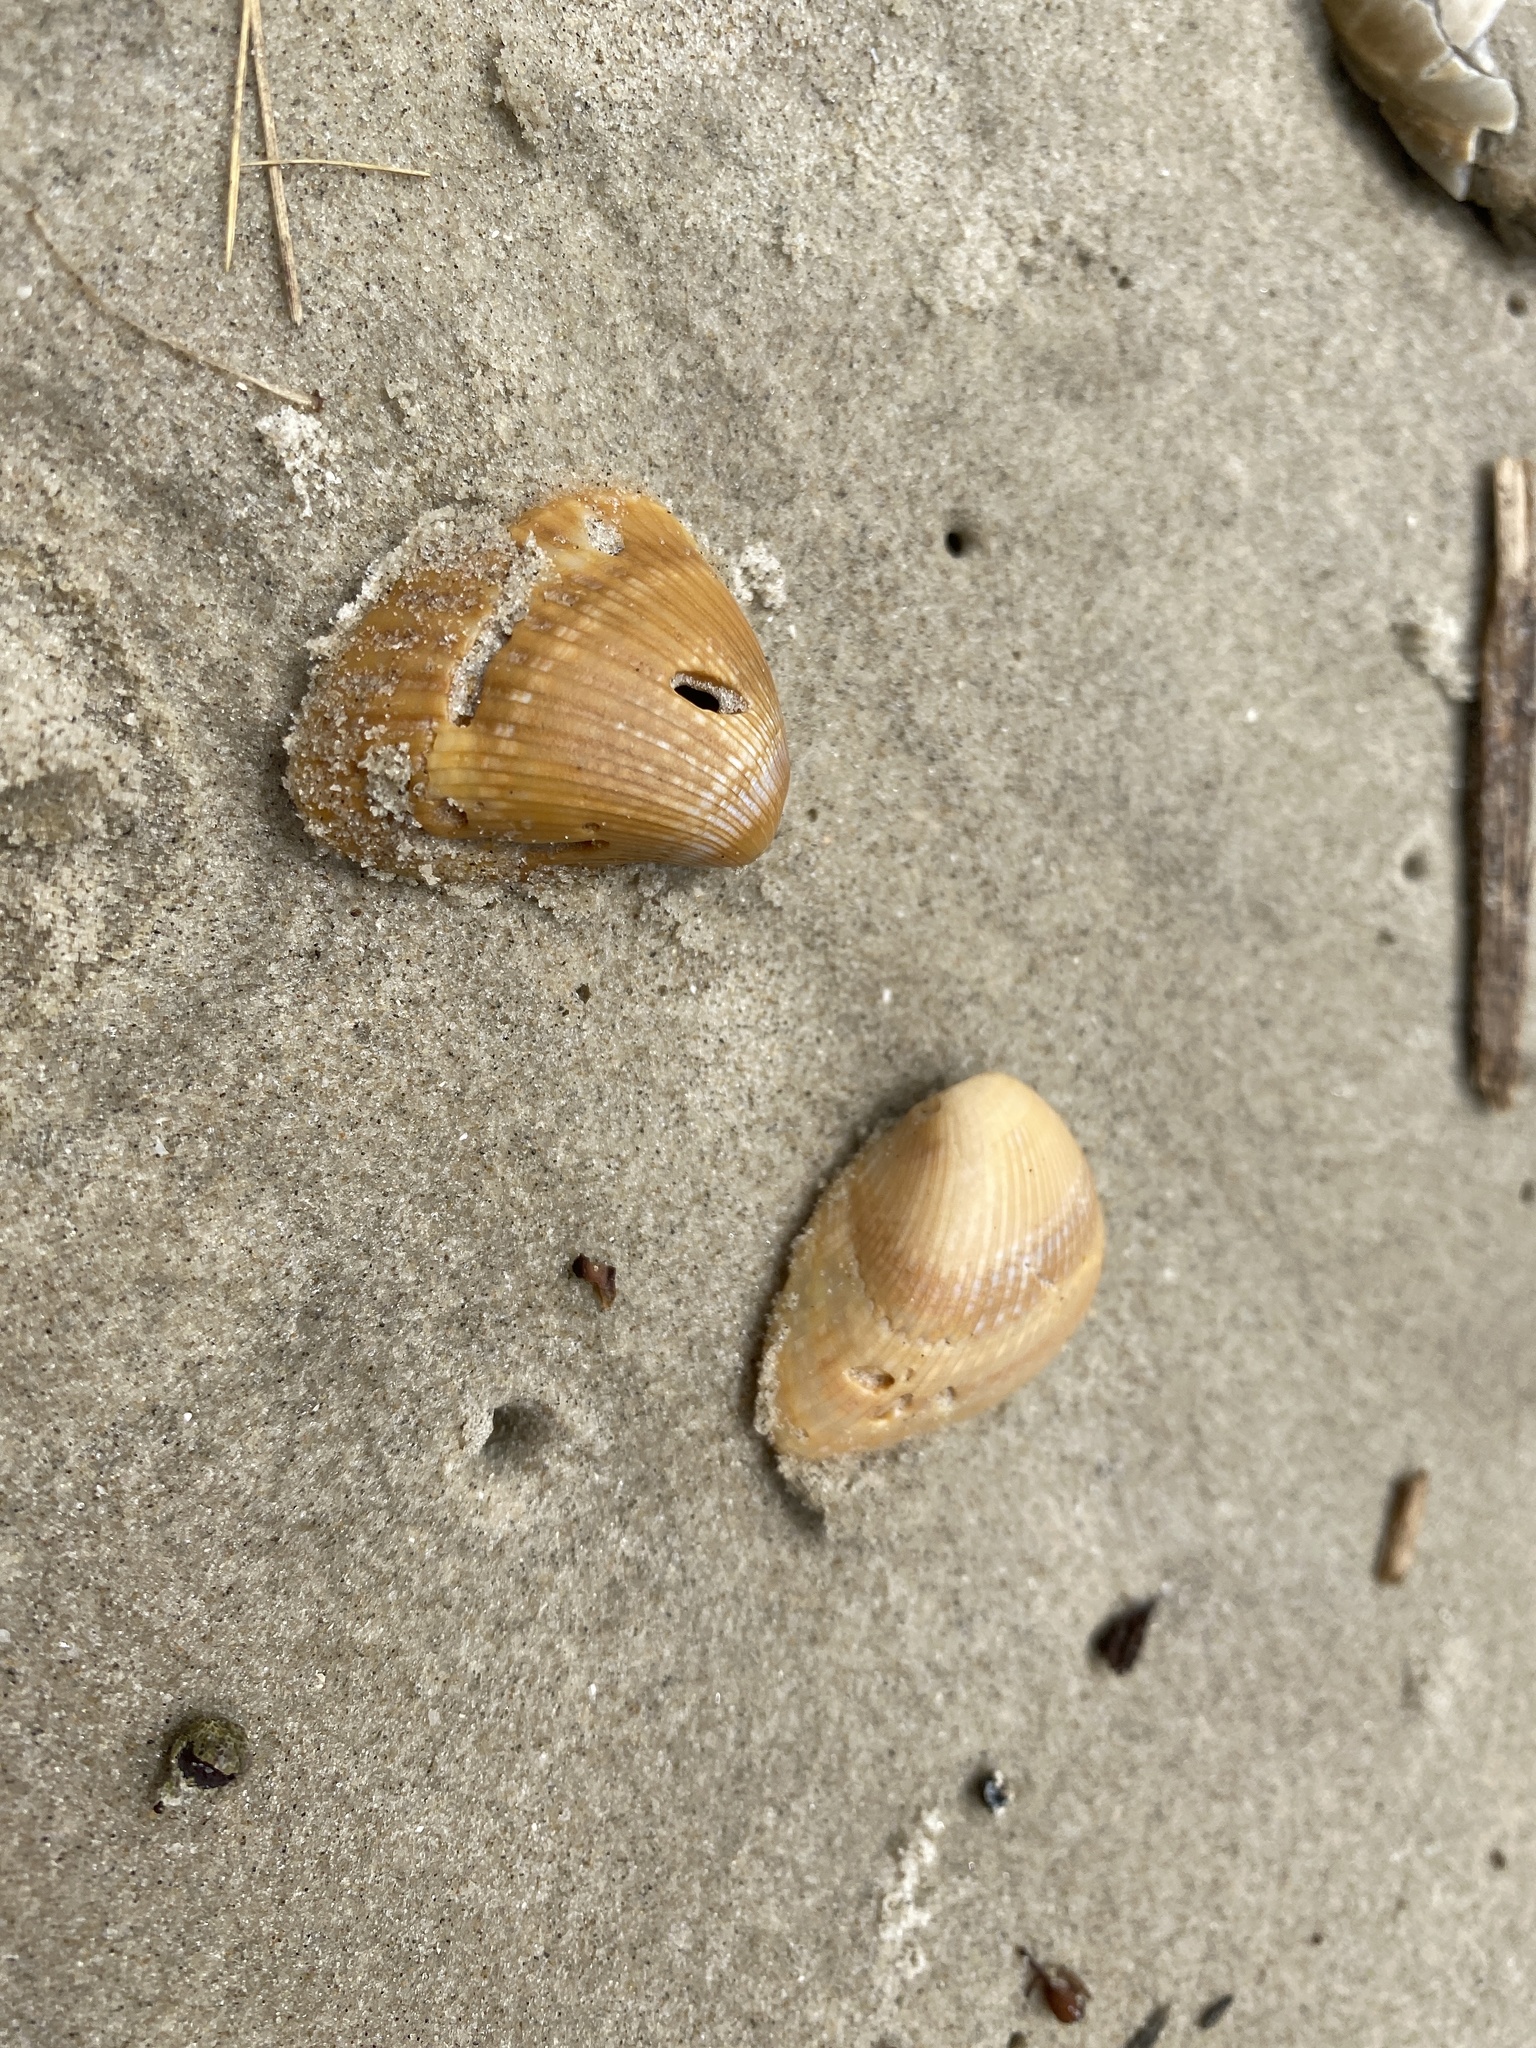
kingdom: Animalia
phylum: Mollusca
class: Bivalvia
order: Arcida
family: Noetiidae
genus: Noetia
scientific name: Noetia ponderosa
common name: Ponderous ark
